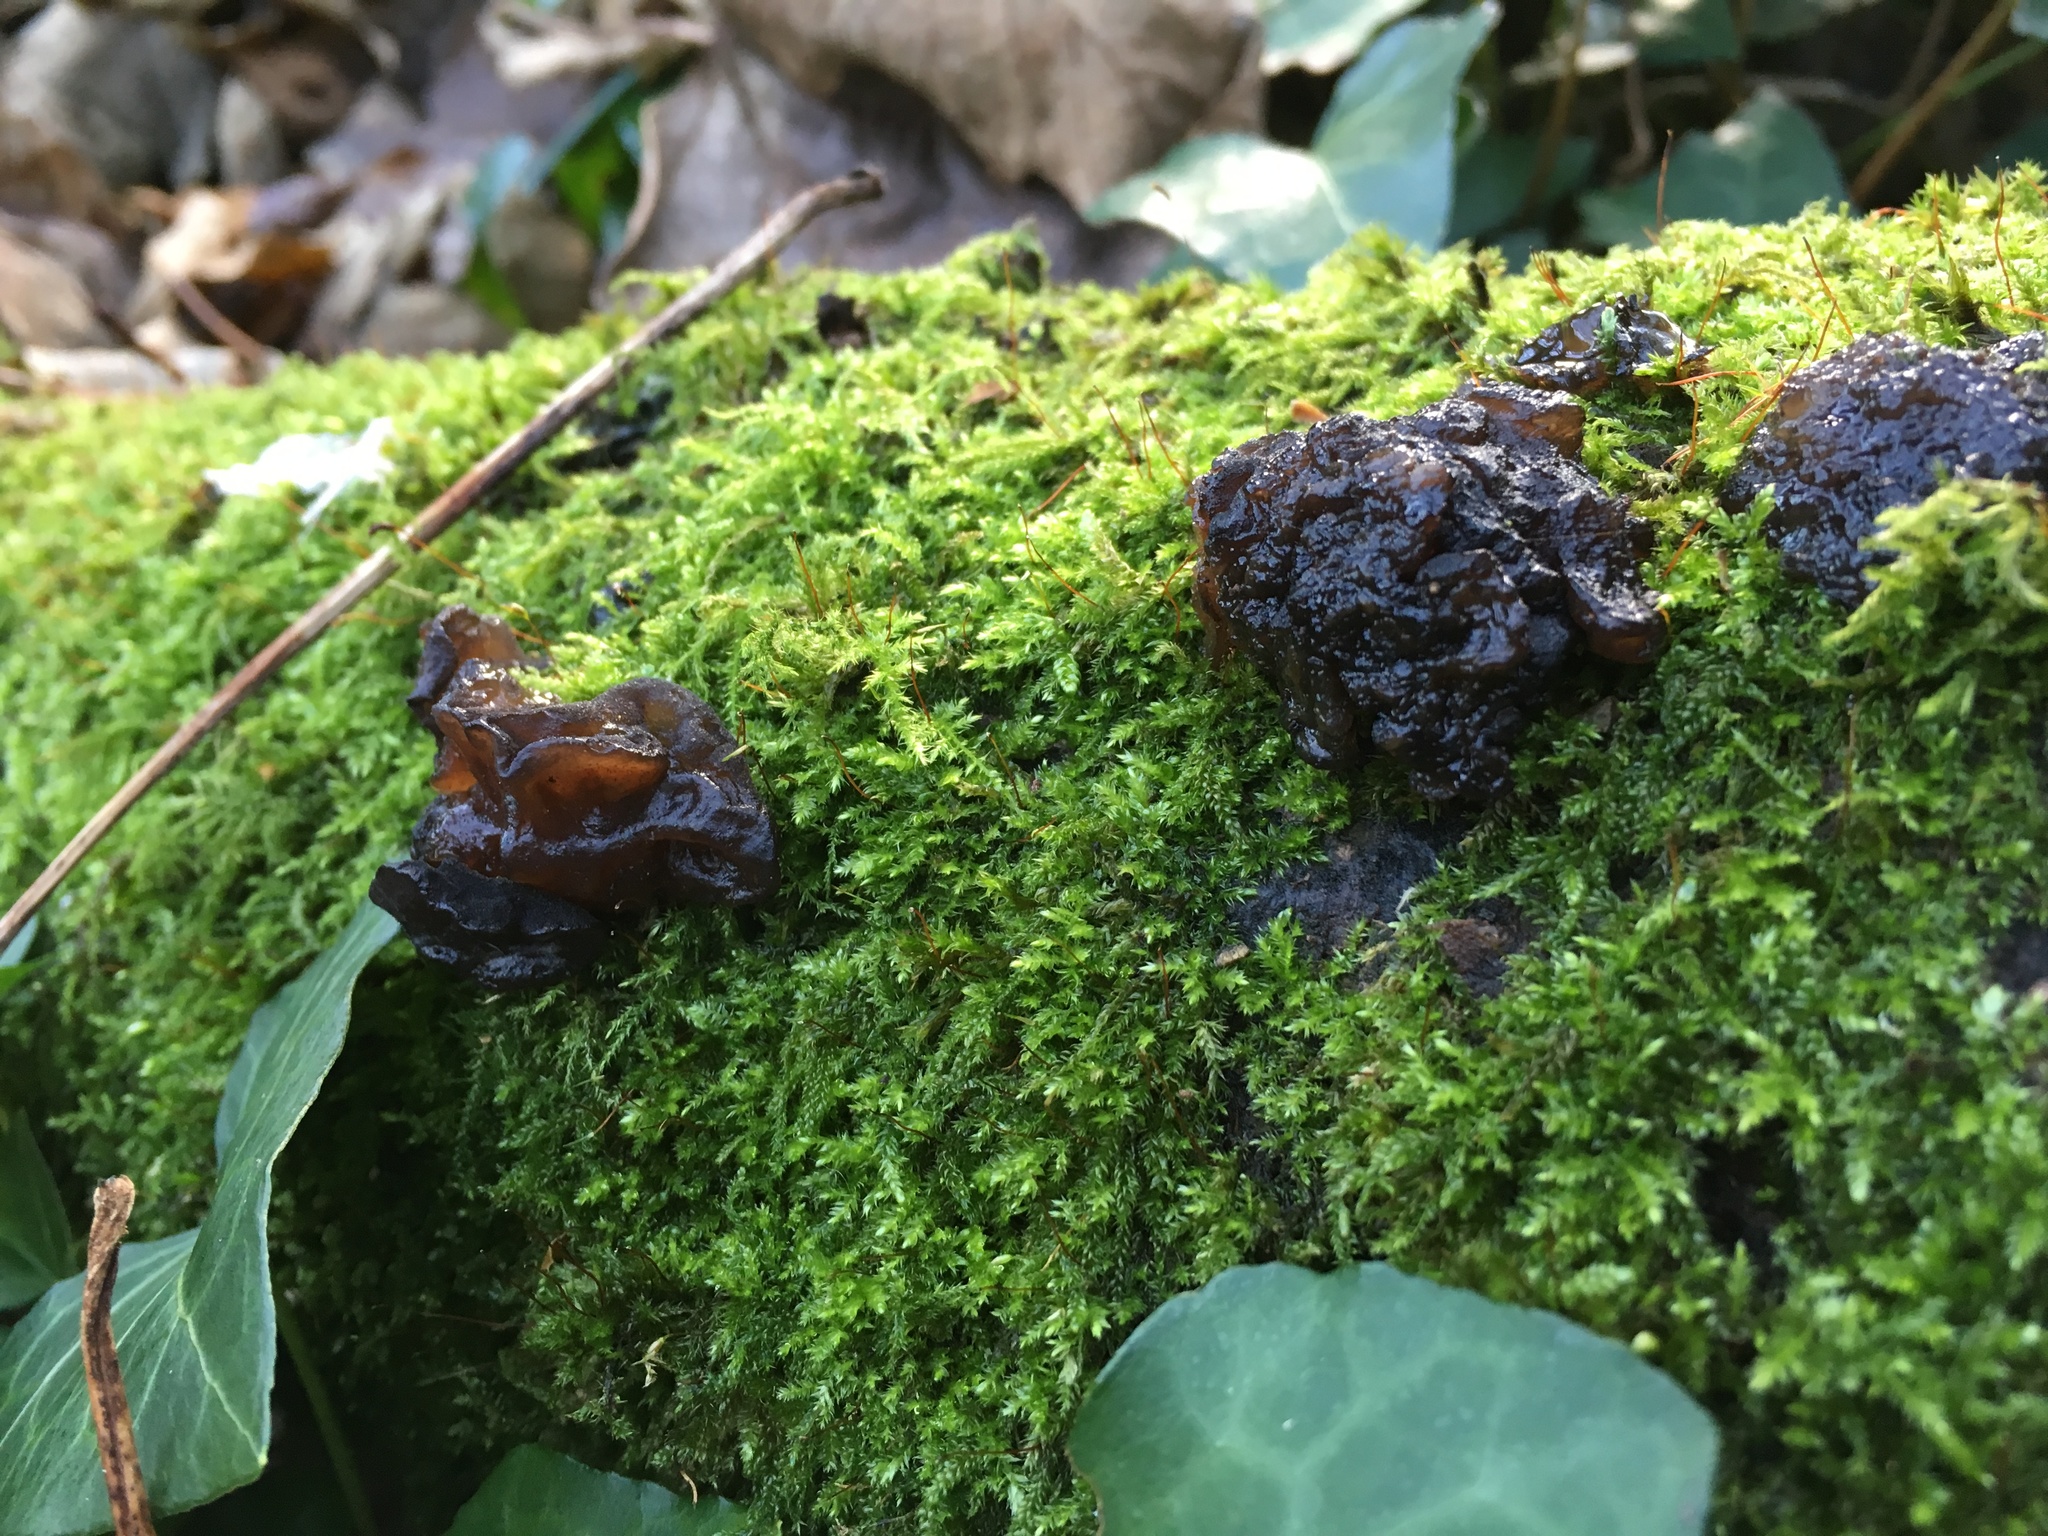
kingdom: Fungi
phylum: Basidiomycota
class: Agaricomycetes
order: Auriculariales
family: Auriculariaceae
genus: Exidia
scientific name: Exidia glandulosa
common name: Witches' butter
